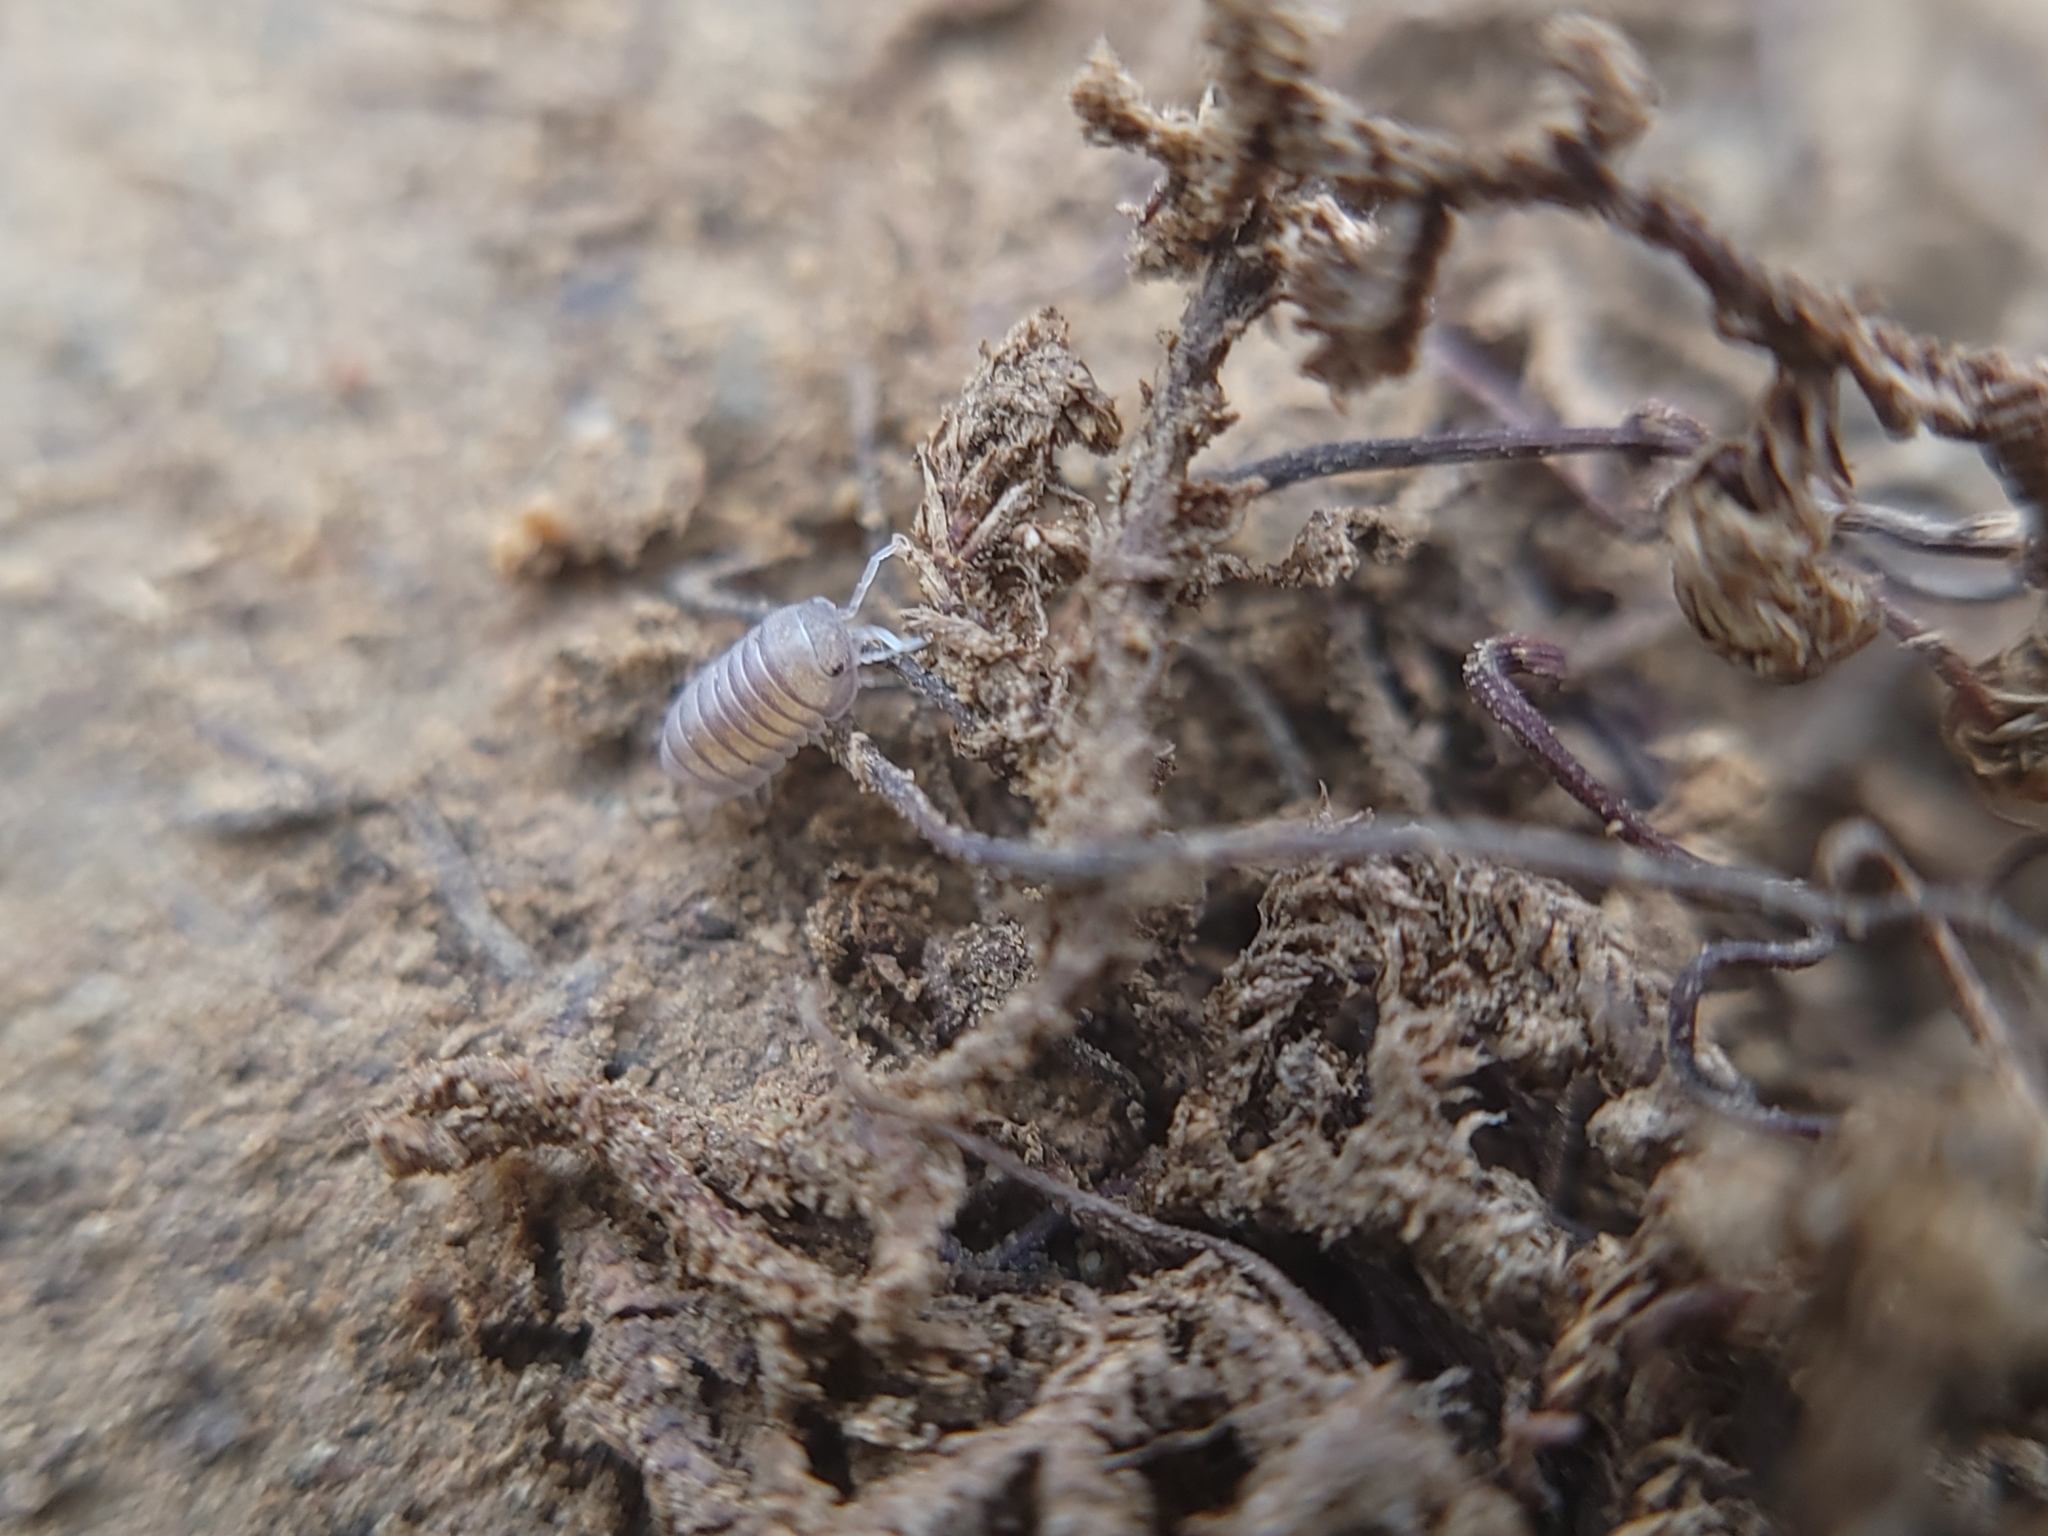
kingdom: Animalia
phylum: Arthropoda
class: Malacostraca
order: Isopoda
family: Armadillidae
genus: Venezillo
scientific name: Venezillo arizonicus
